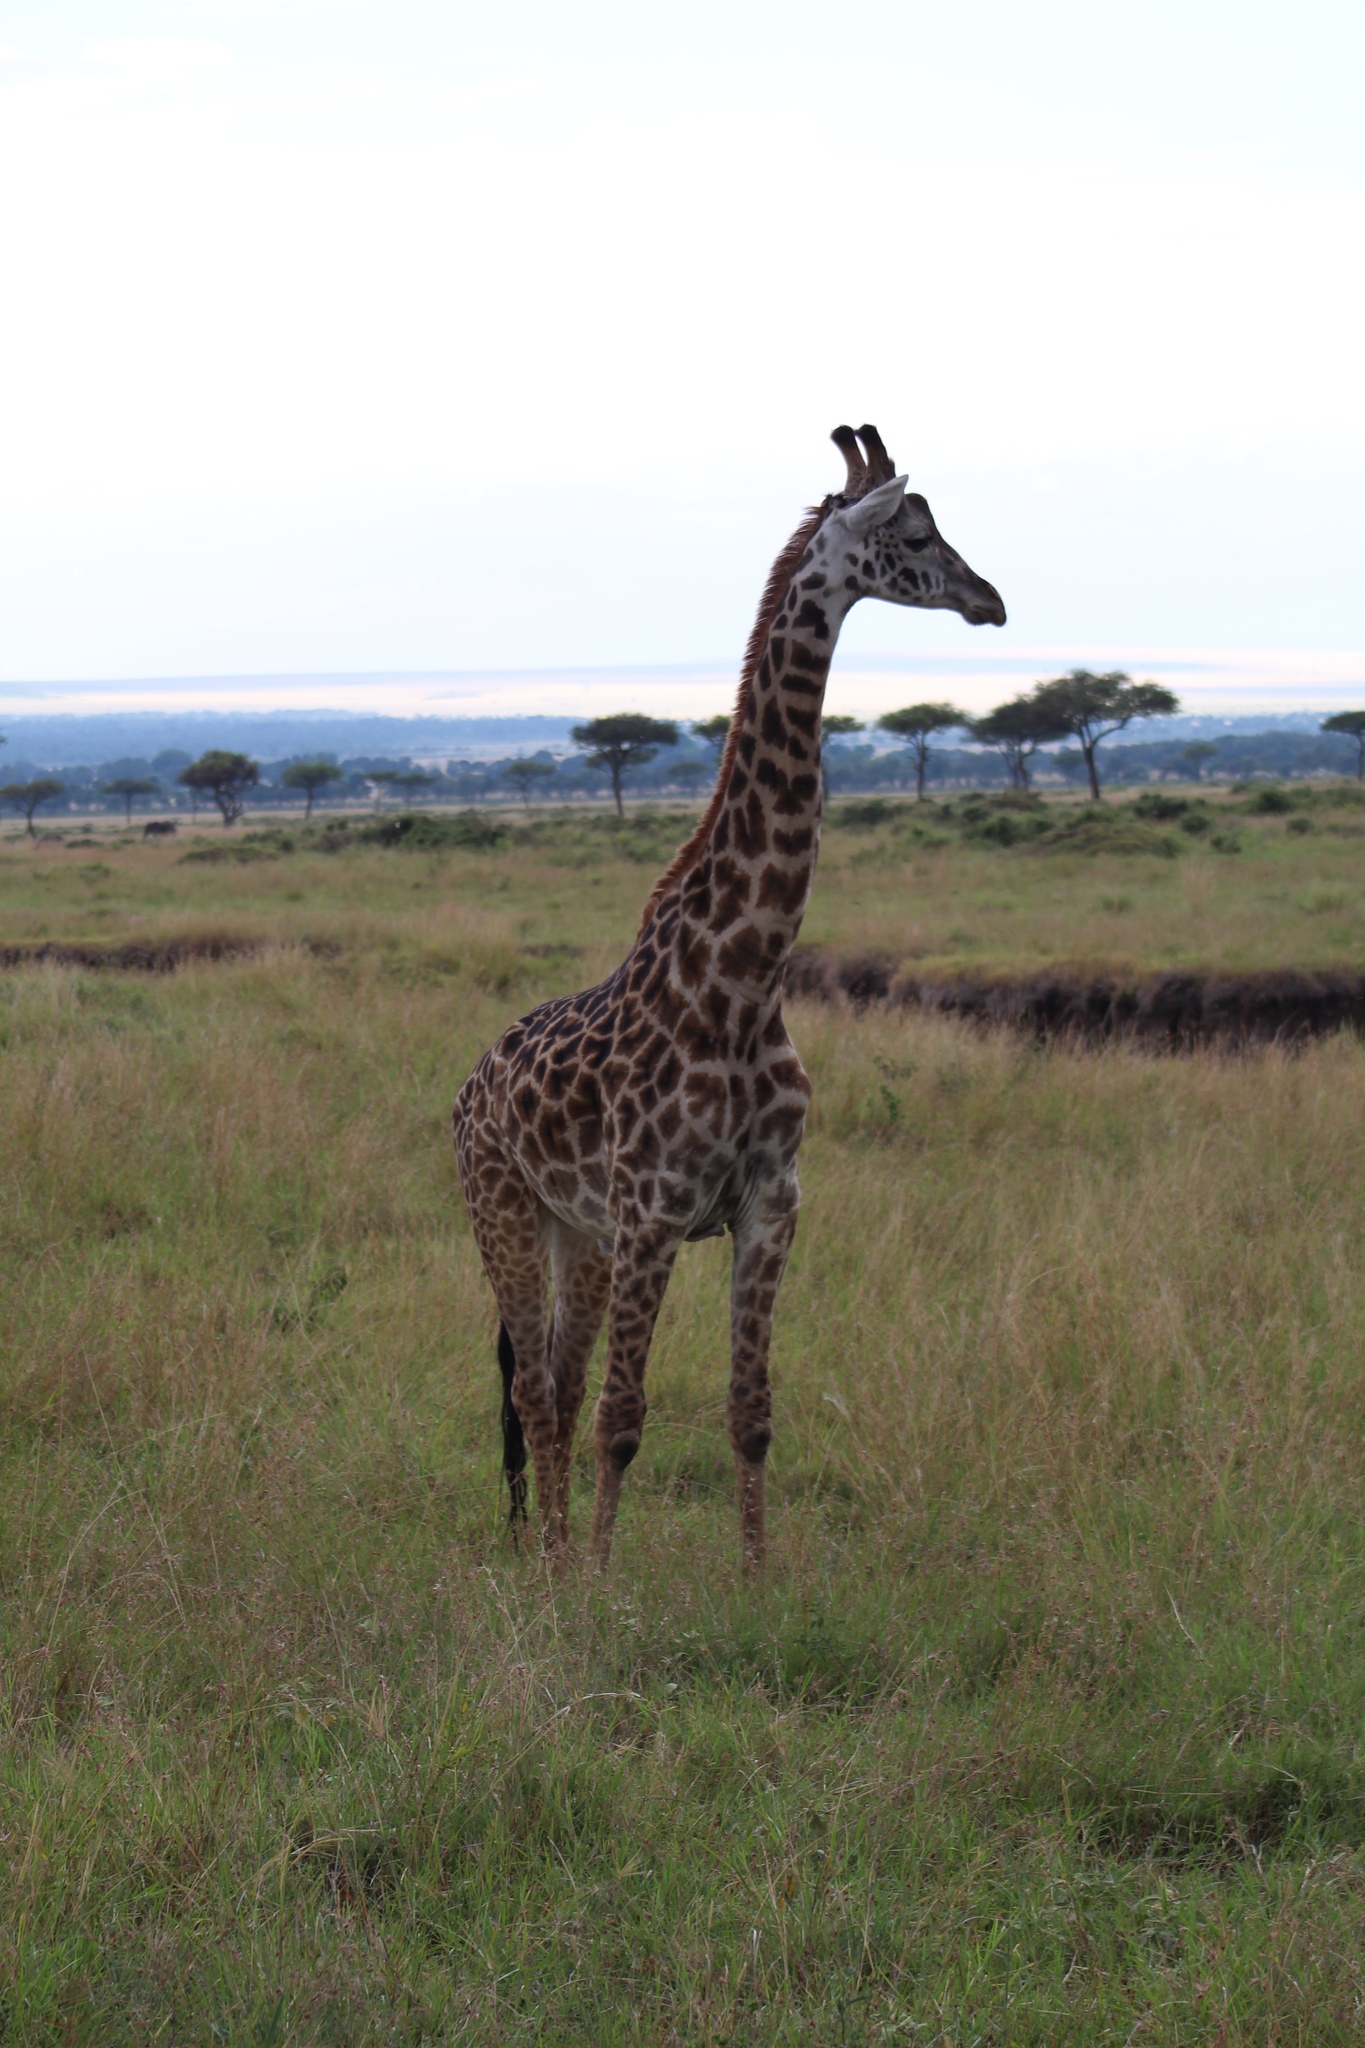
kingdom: Animalia
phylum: Chordata
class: Mammalia
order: Artiodactyla
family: Giraffidae
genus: Giraffa
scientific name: Giraffa tippelskirchi
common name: Masai giraffe
